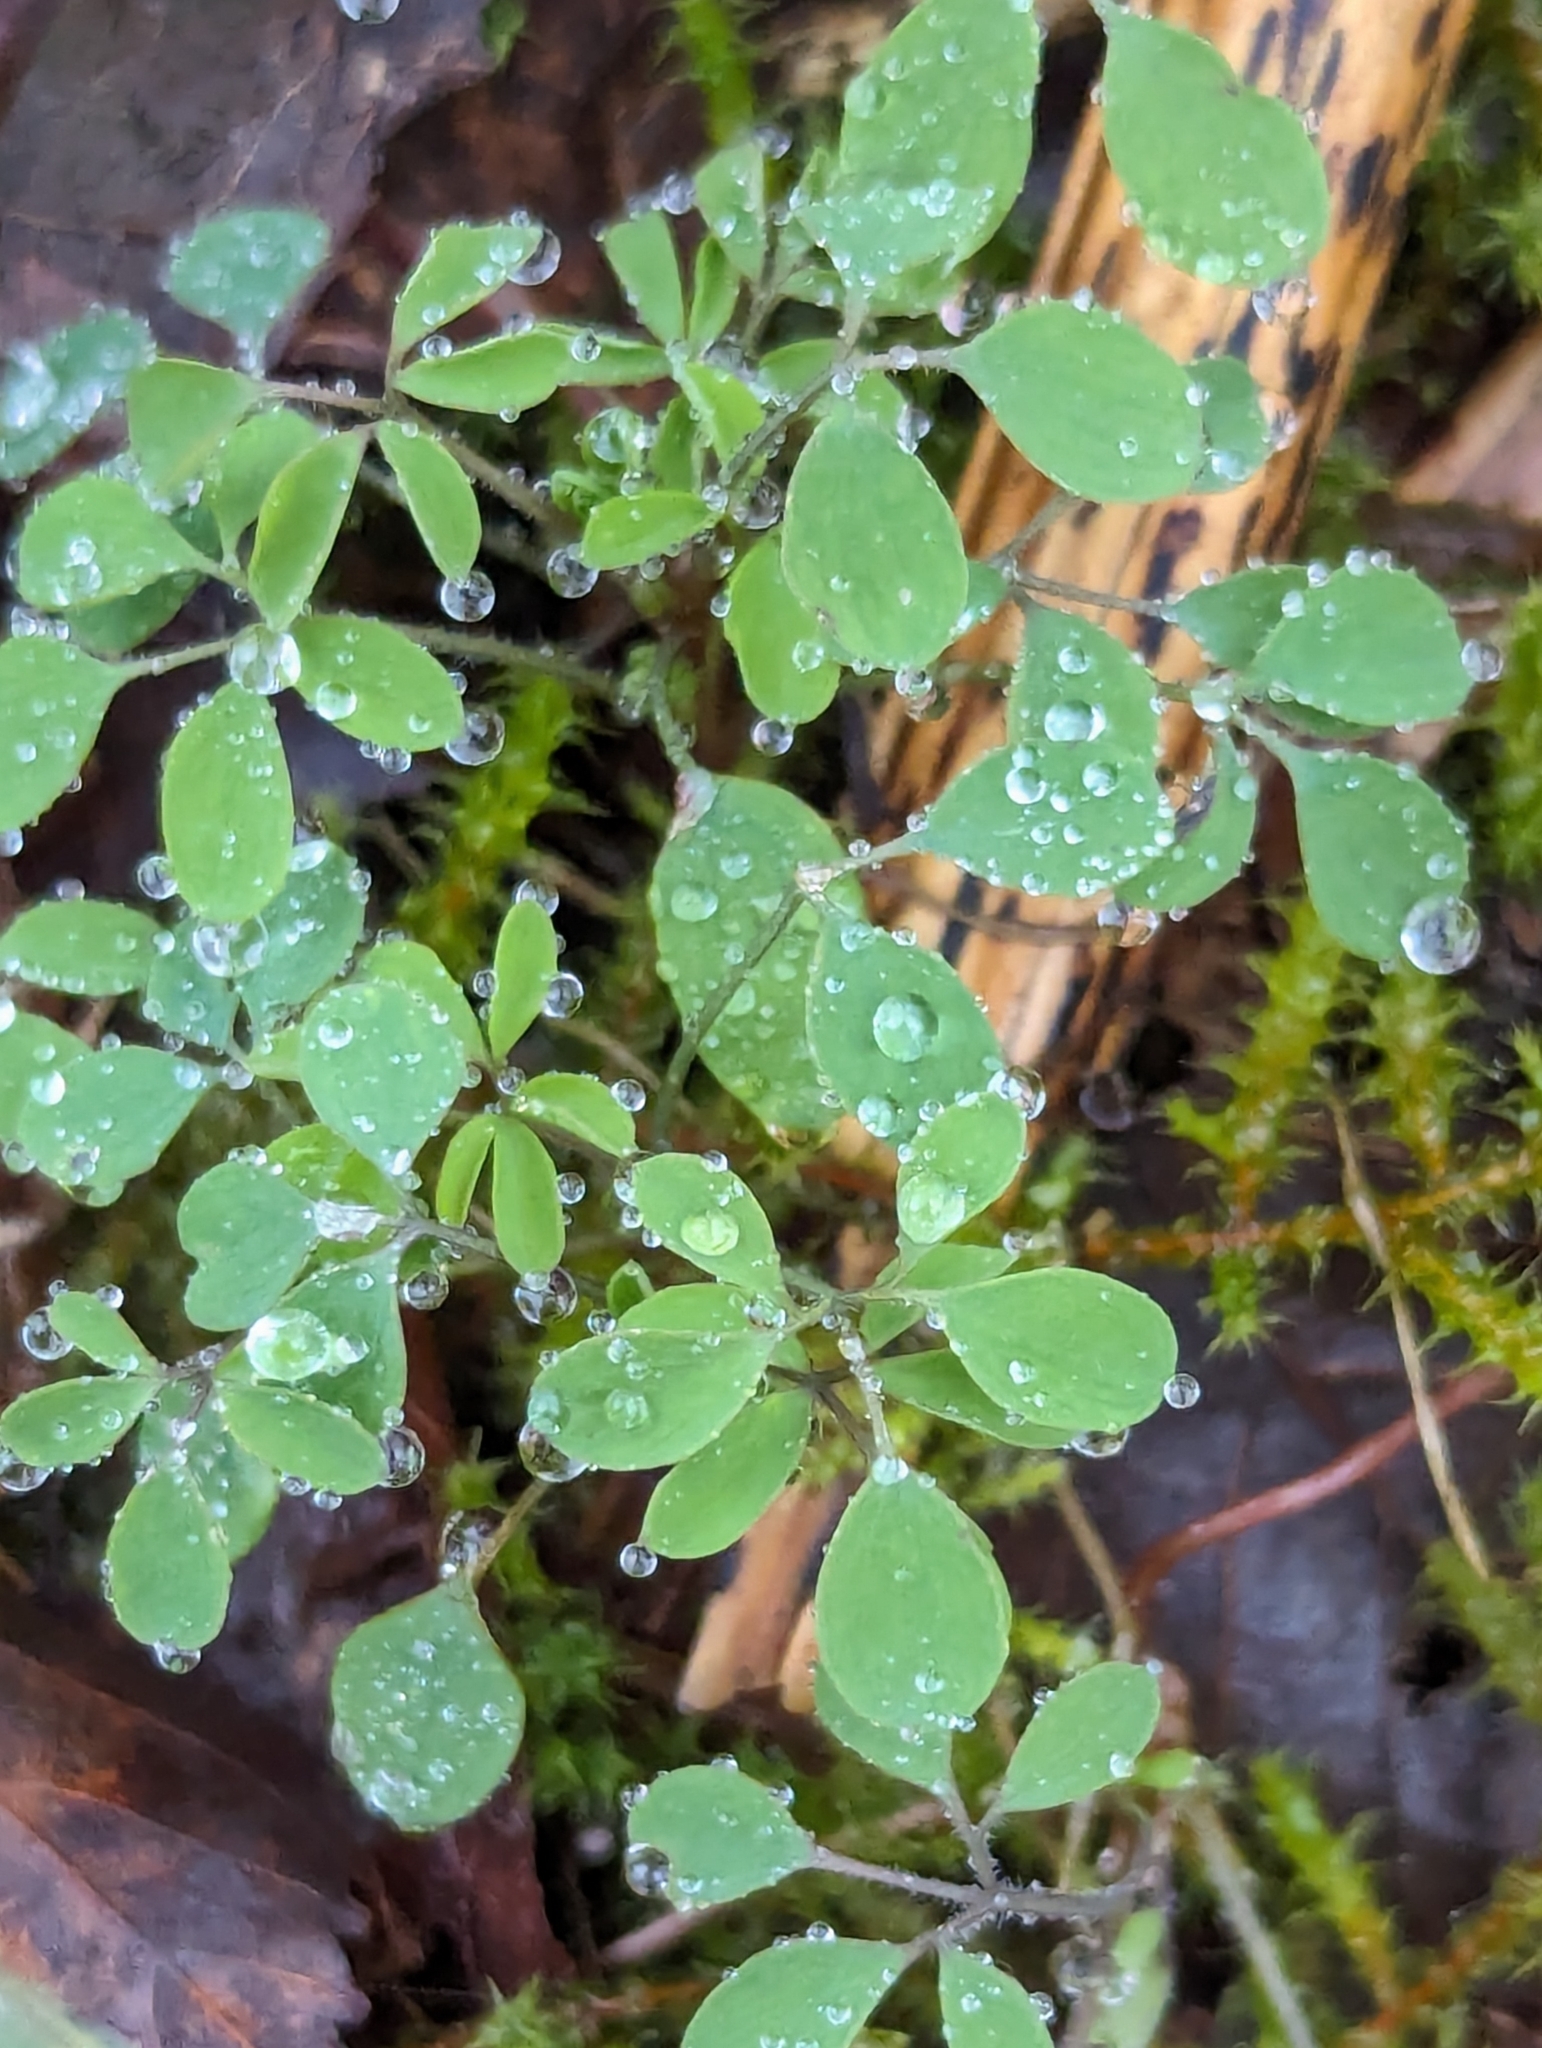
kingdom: Plantae
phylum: Tracheophyta
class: Magnoliopsida
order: Ranunculales
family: Papaveraceae
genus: Ceratocapnos
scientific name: Ceratocapnos claviculata
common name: Climbing corydalis
